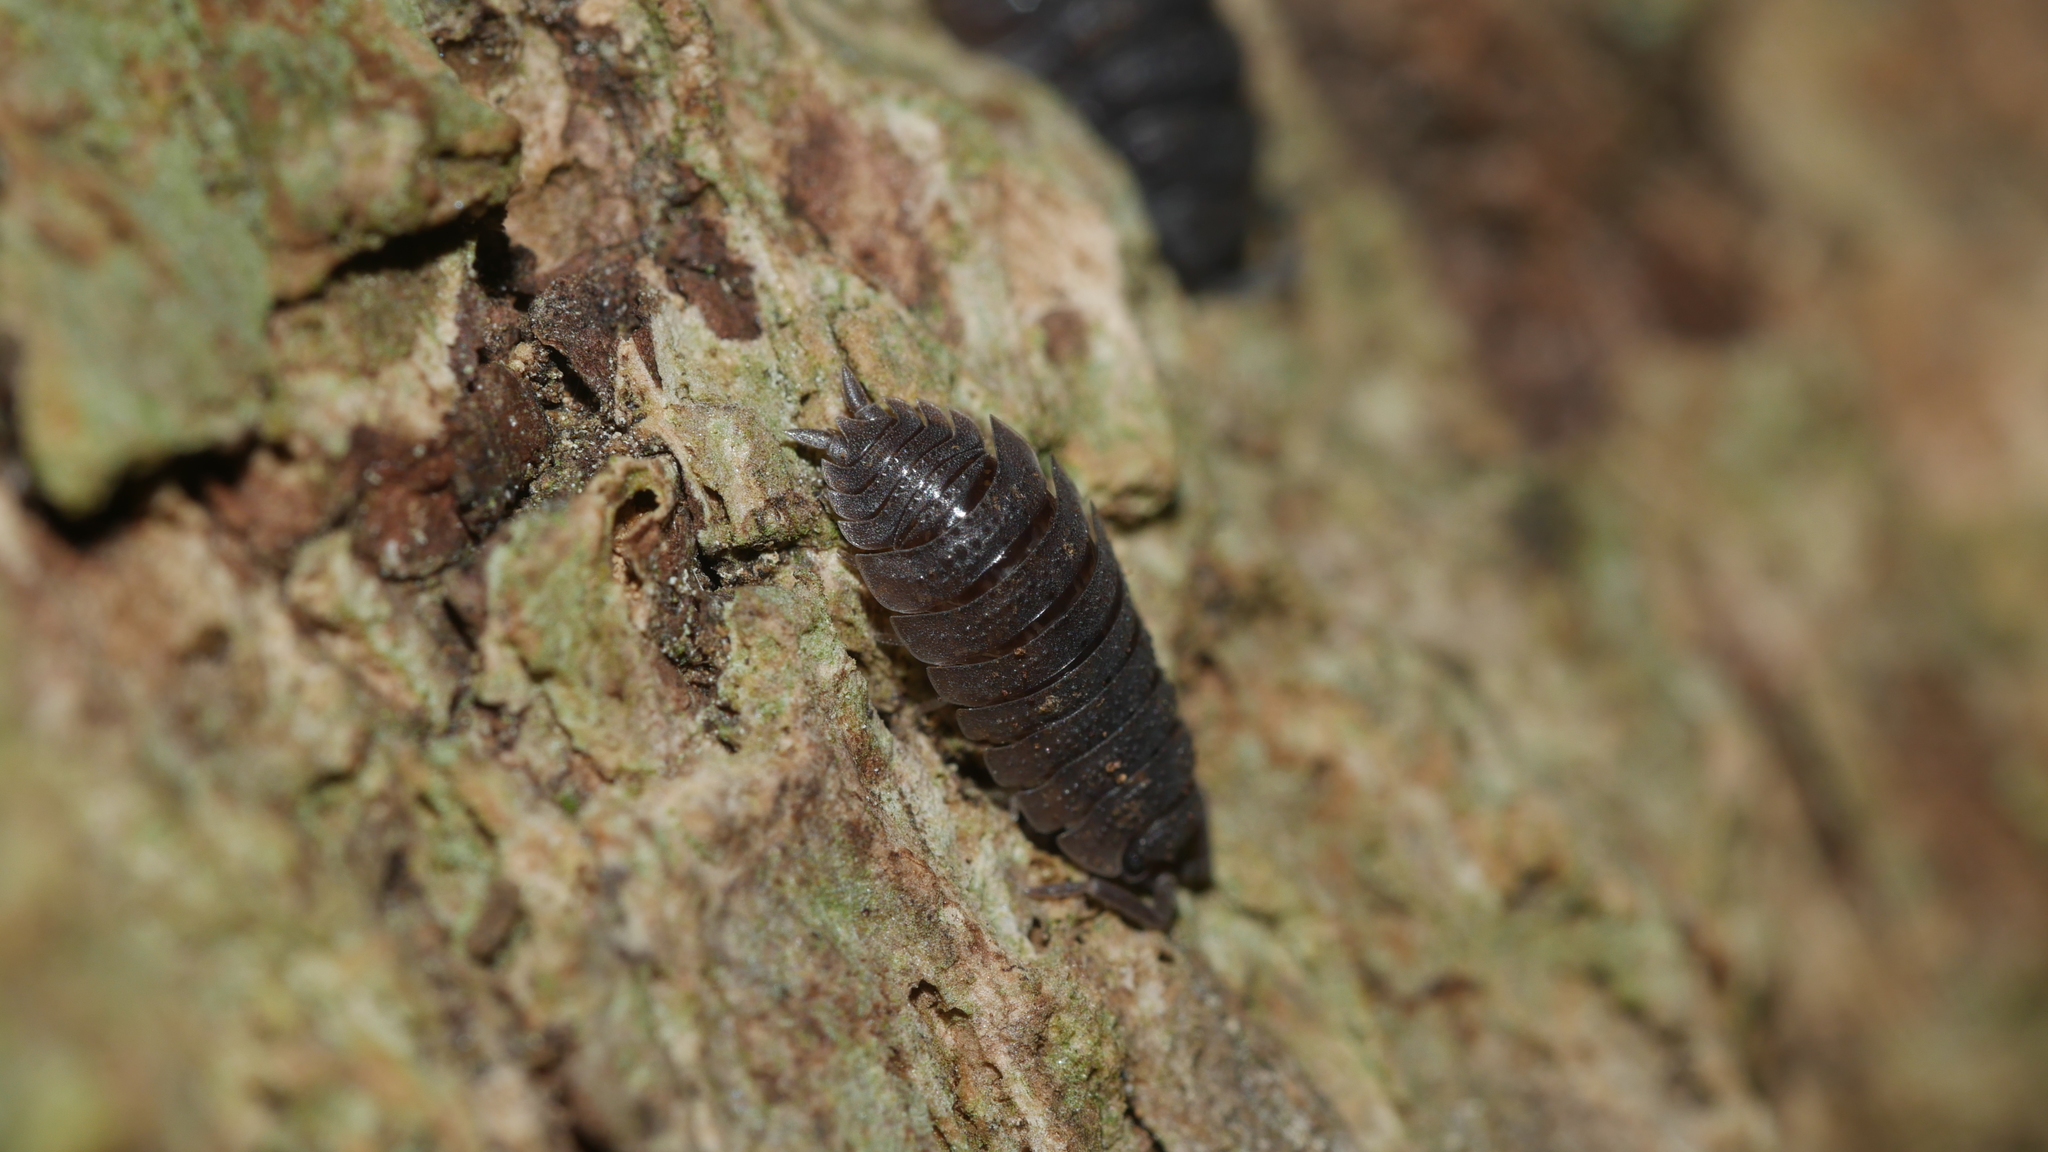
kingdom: Animalia
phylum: Arthropoda
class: Malacostraca
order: Isopoda
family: Porcellionidae
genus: Porcellio
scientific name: Porcellio scaber
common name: Common rough woodlouse
